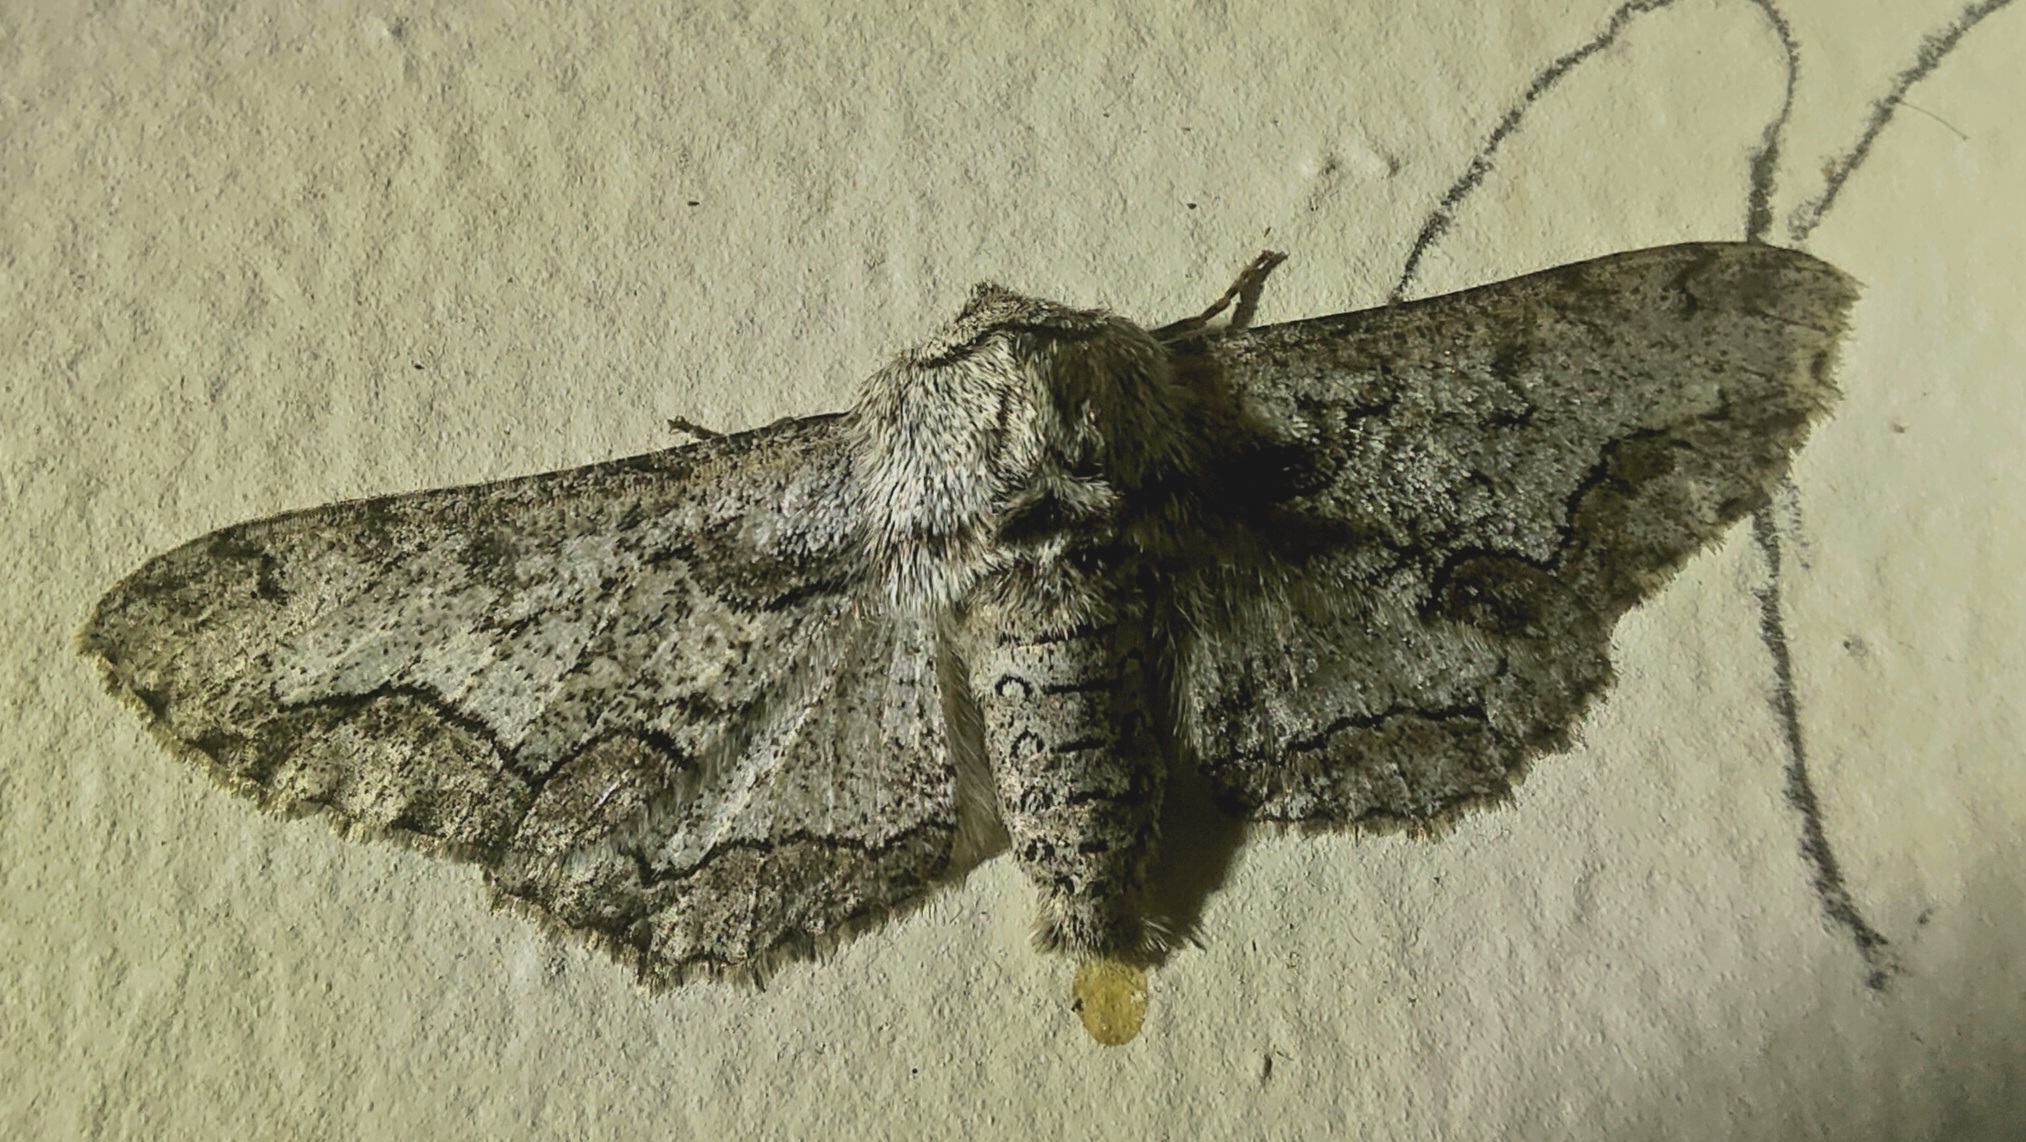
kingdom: Animalia
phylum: Arthropoda
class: Insecta
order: Lepidoptera
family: Geometridae
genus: Biston
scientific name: Biston sinuata
